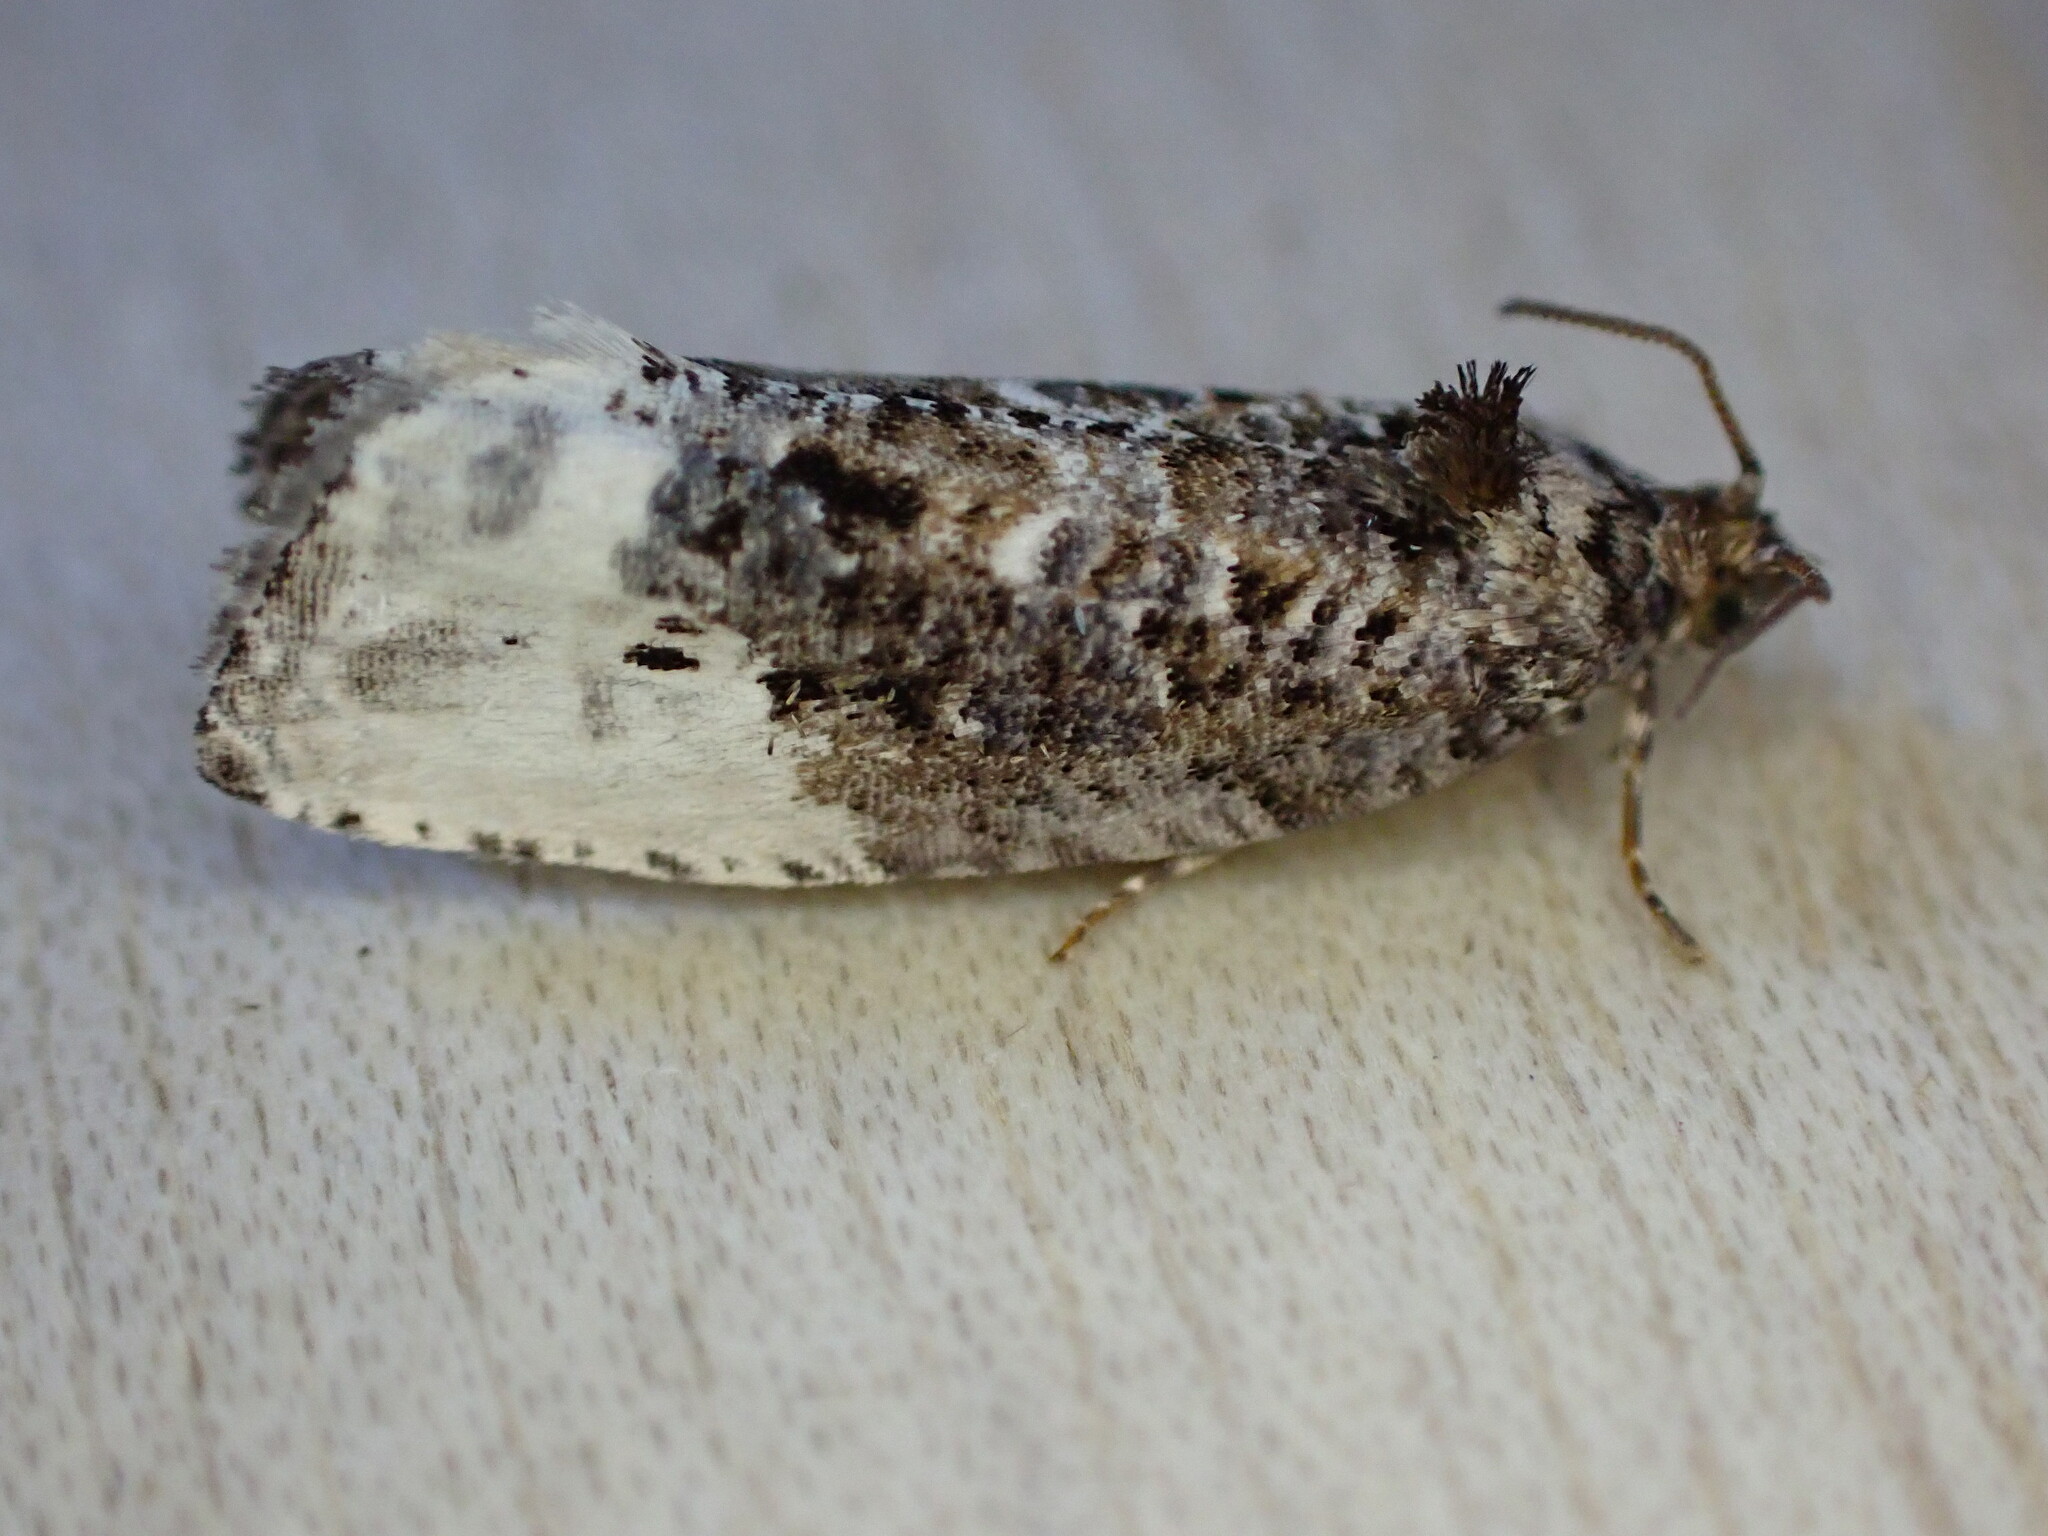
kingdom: Animalia
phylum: Arthropoda
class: Insecta
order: Lepidoptera
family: Tortricidae
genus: Hedya
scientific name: Hedya nubiferana
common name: Marbled orchard tortrix
